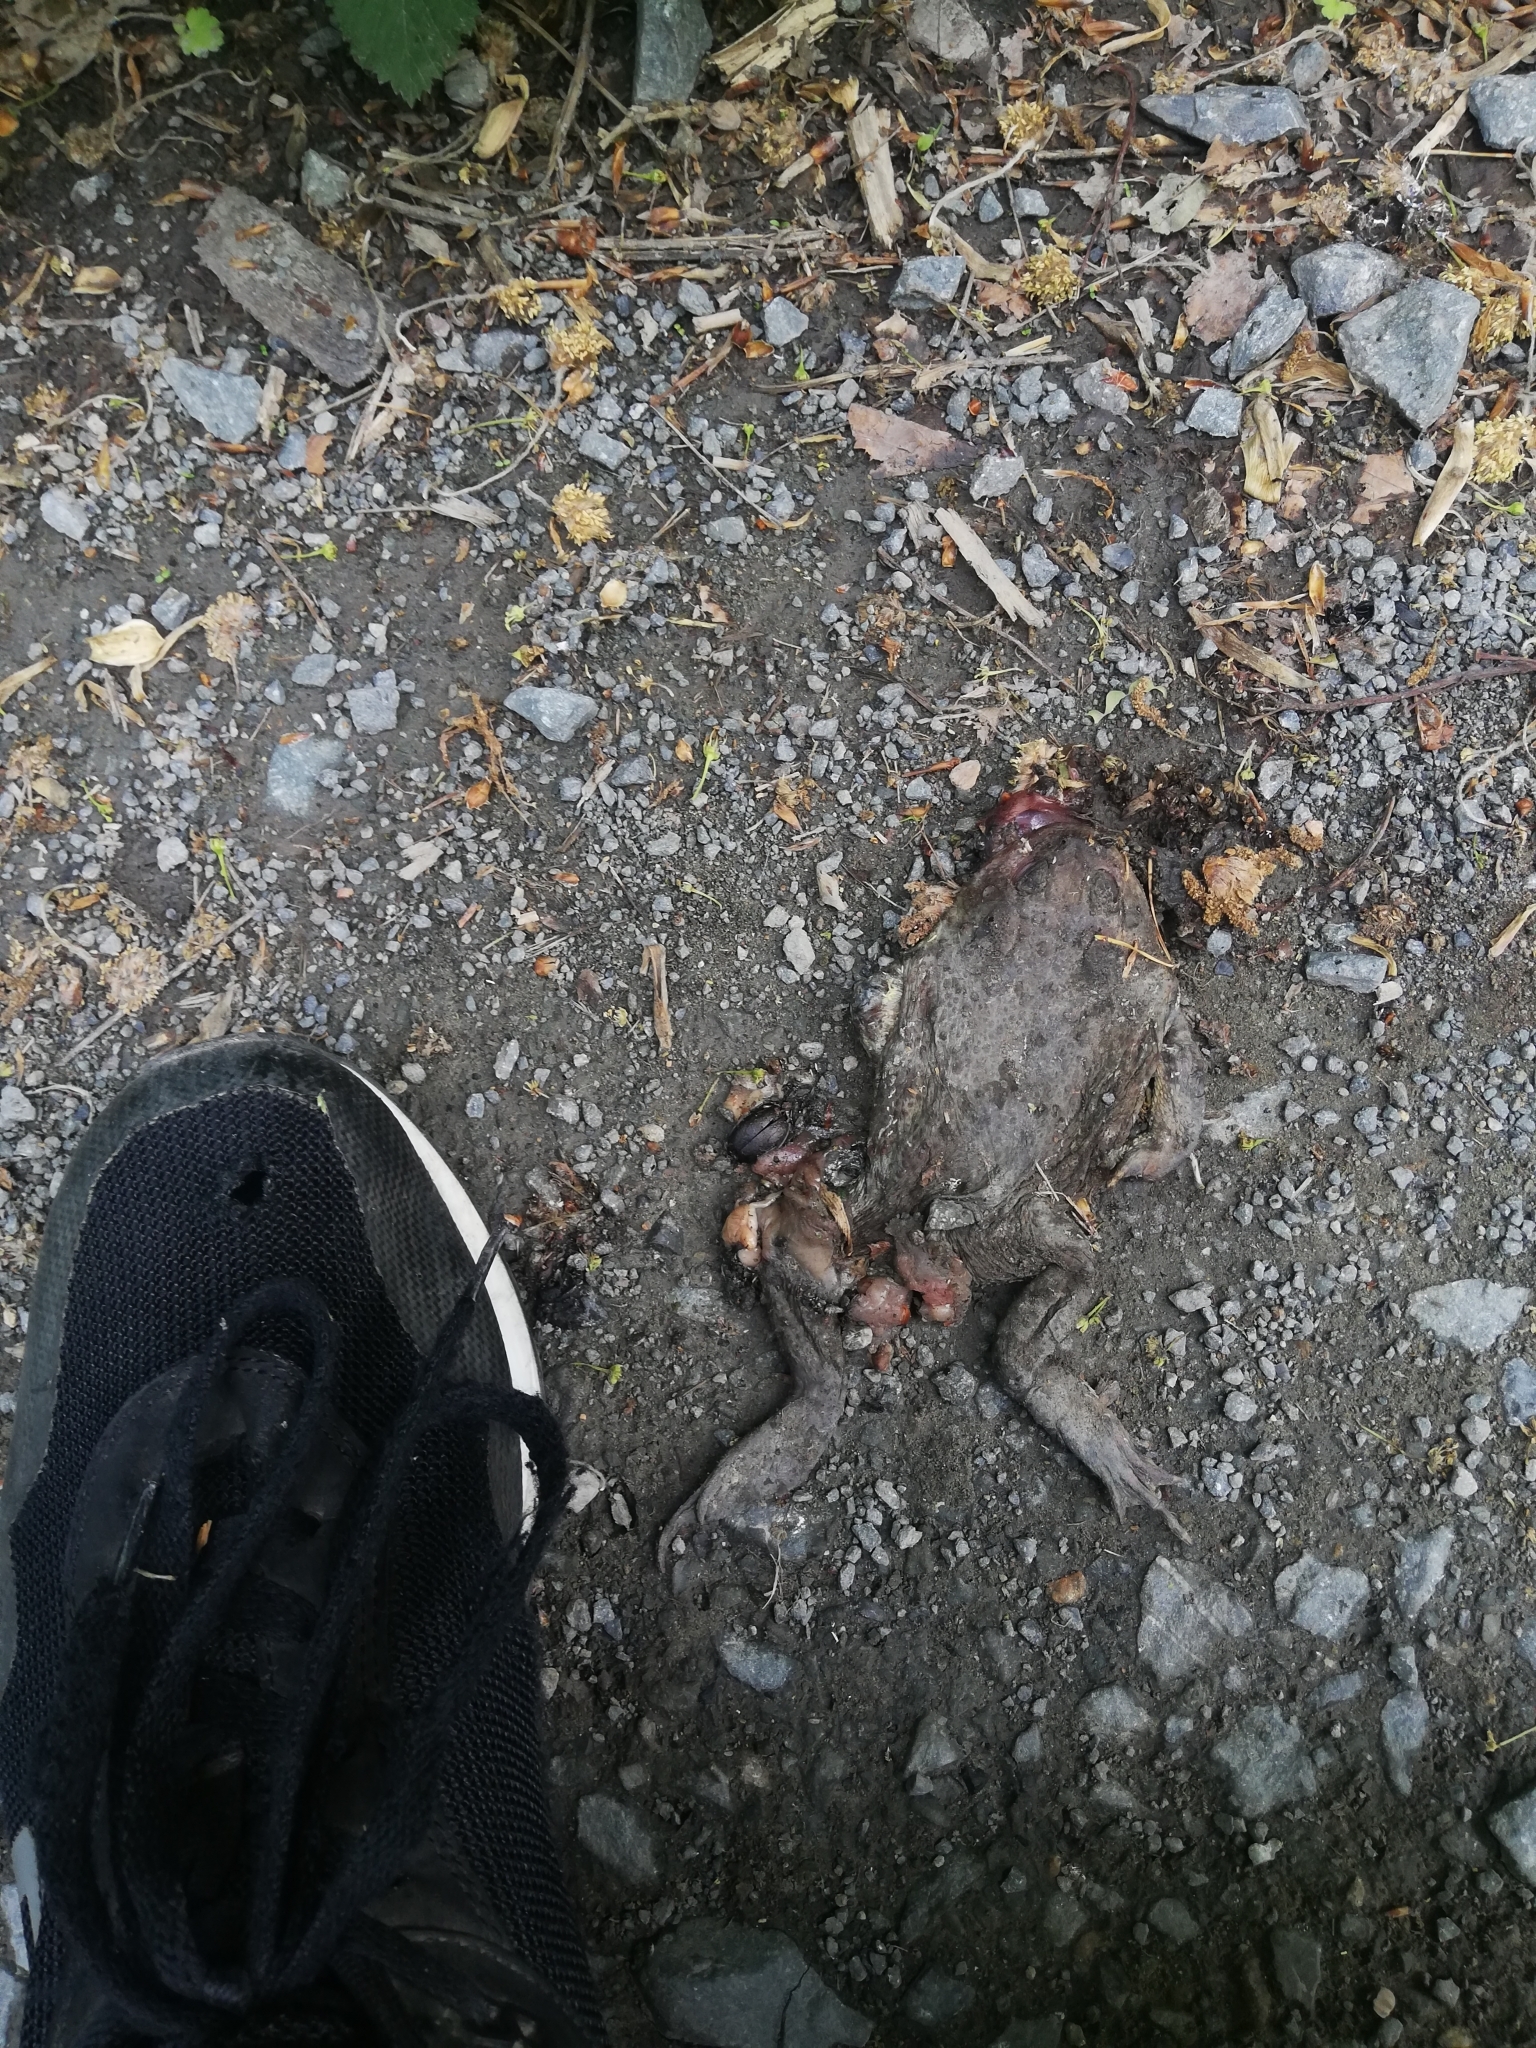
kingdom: Animalia
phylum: Chordata
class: Amphibia
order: Anura
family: Bufonidae
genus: Bufo
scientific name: Bufo bufo
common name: Common toad
